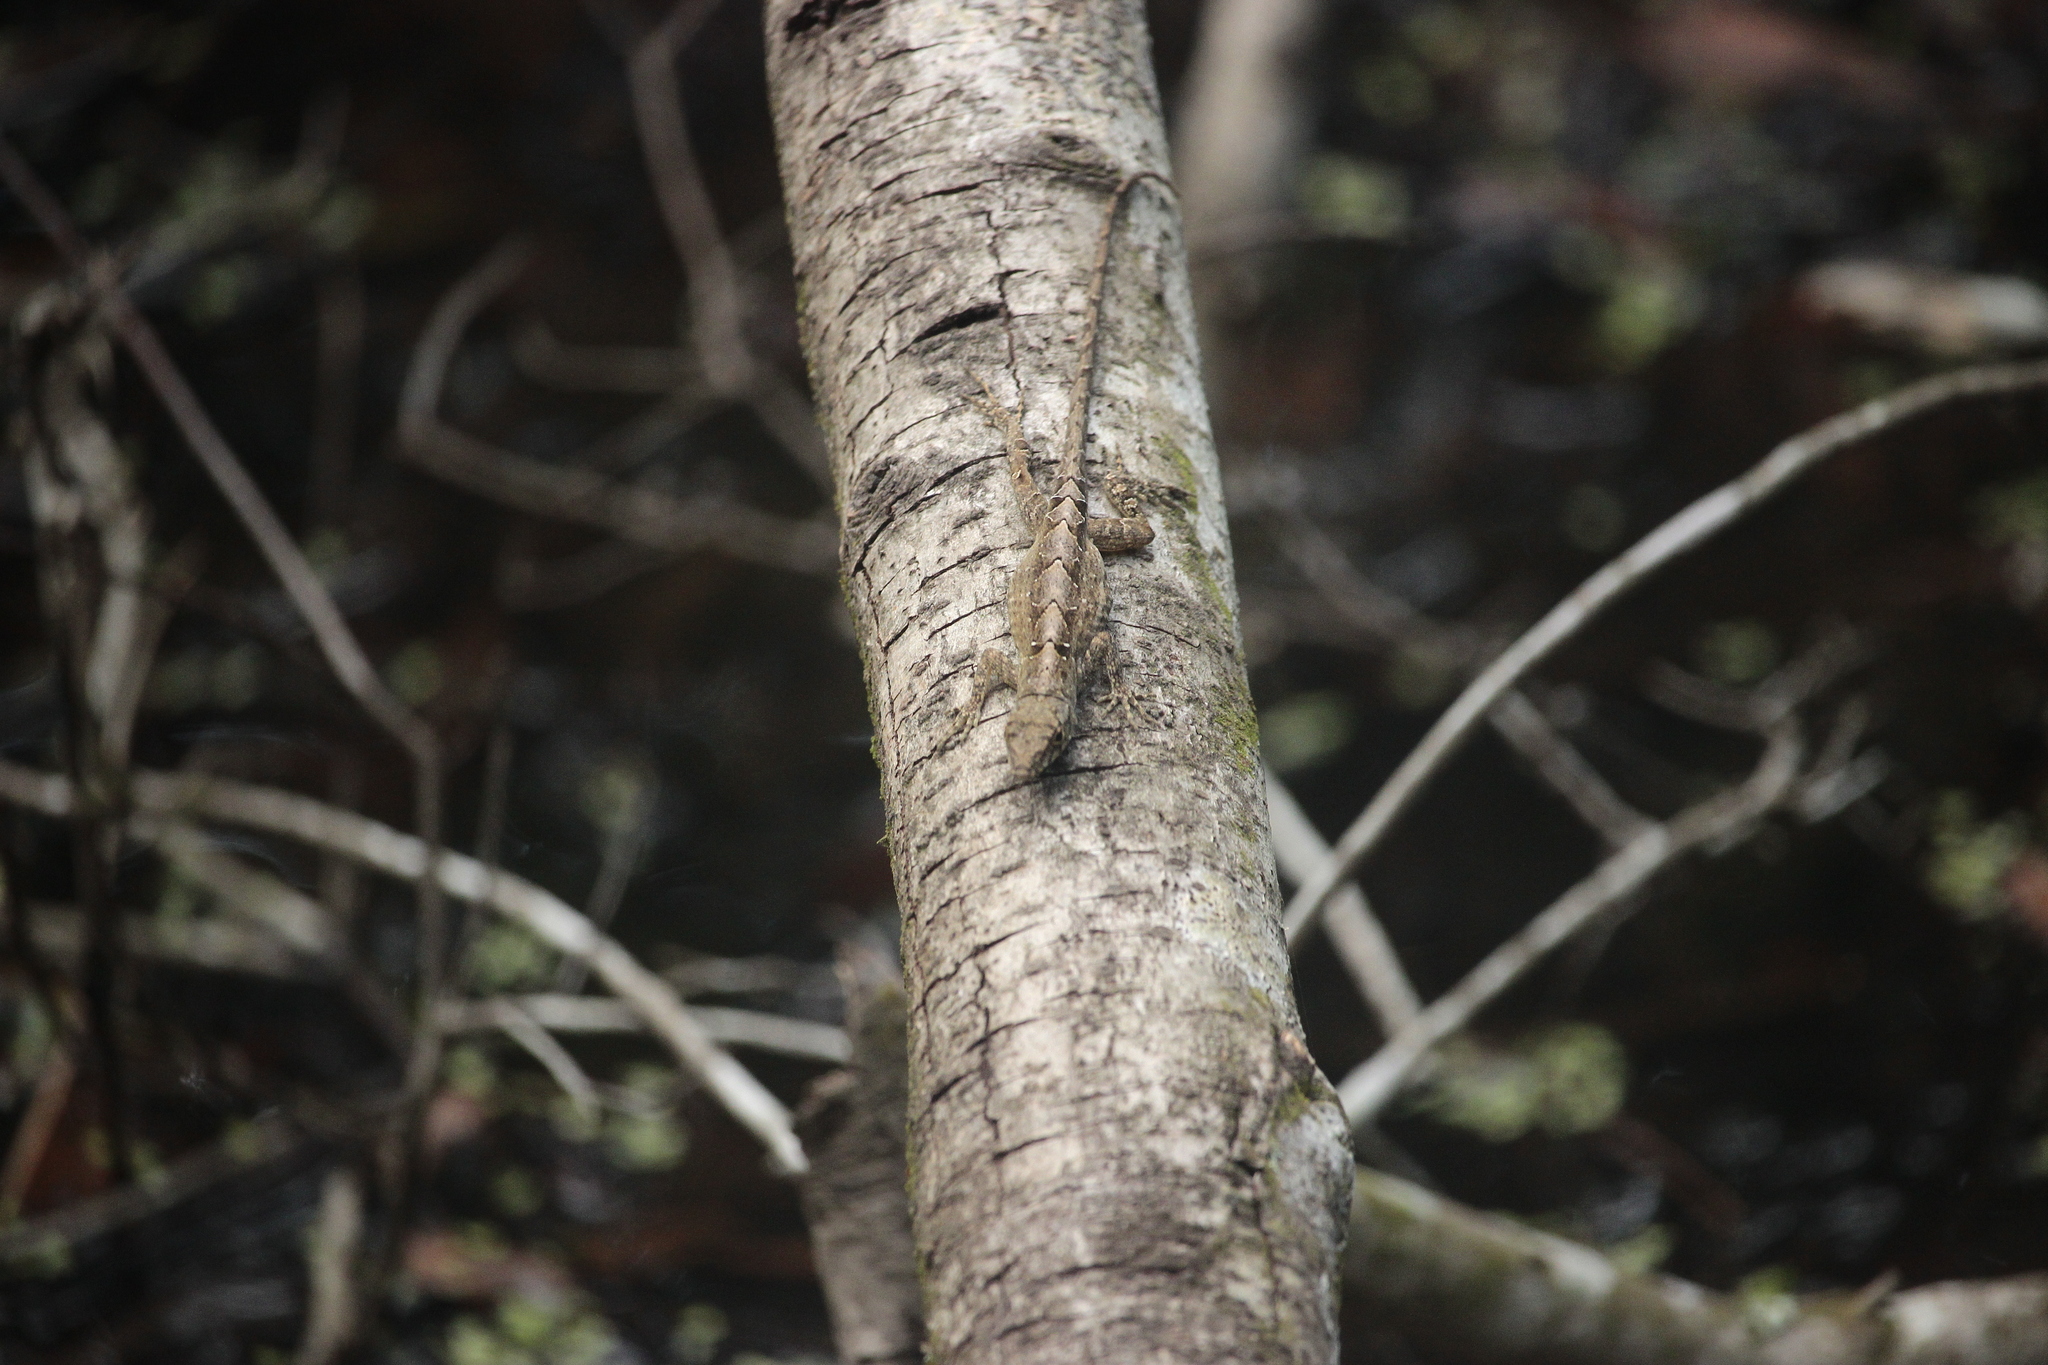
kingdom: Animalia
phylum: Chordata
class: Squamata
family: Dactyloidae
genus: Anolis
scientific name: Anolis sagrei
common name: Brown anole
